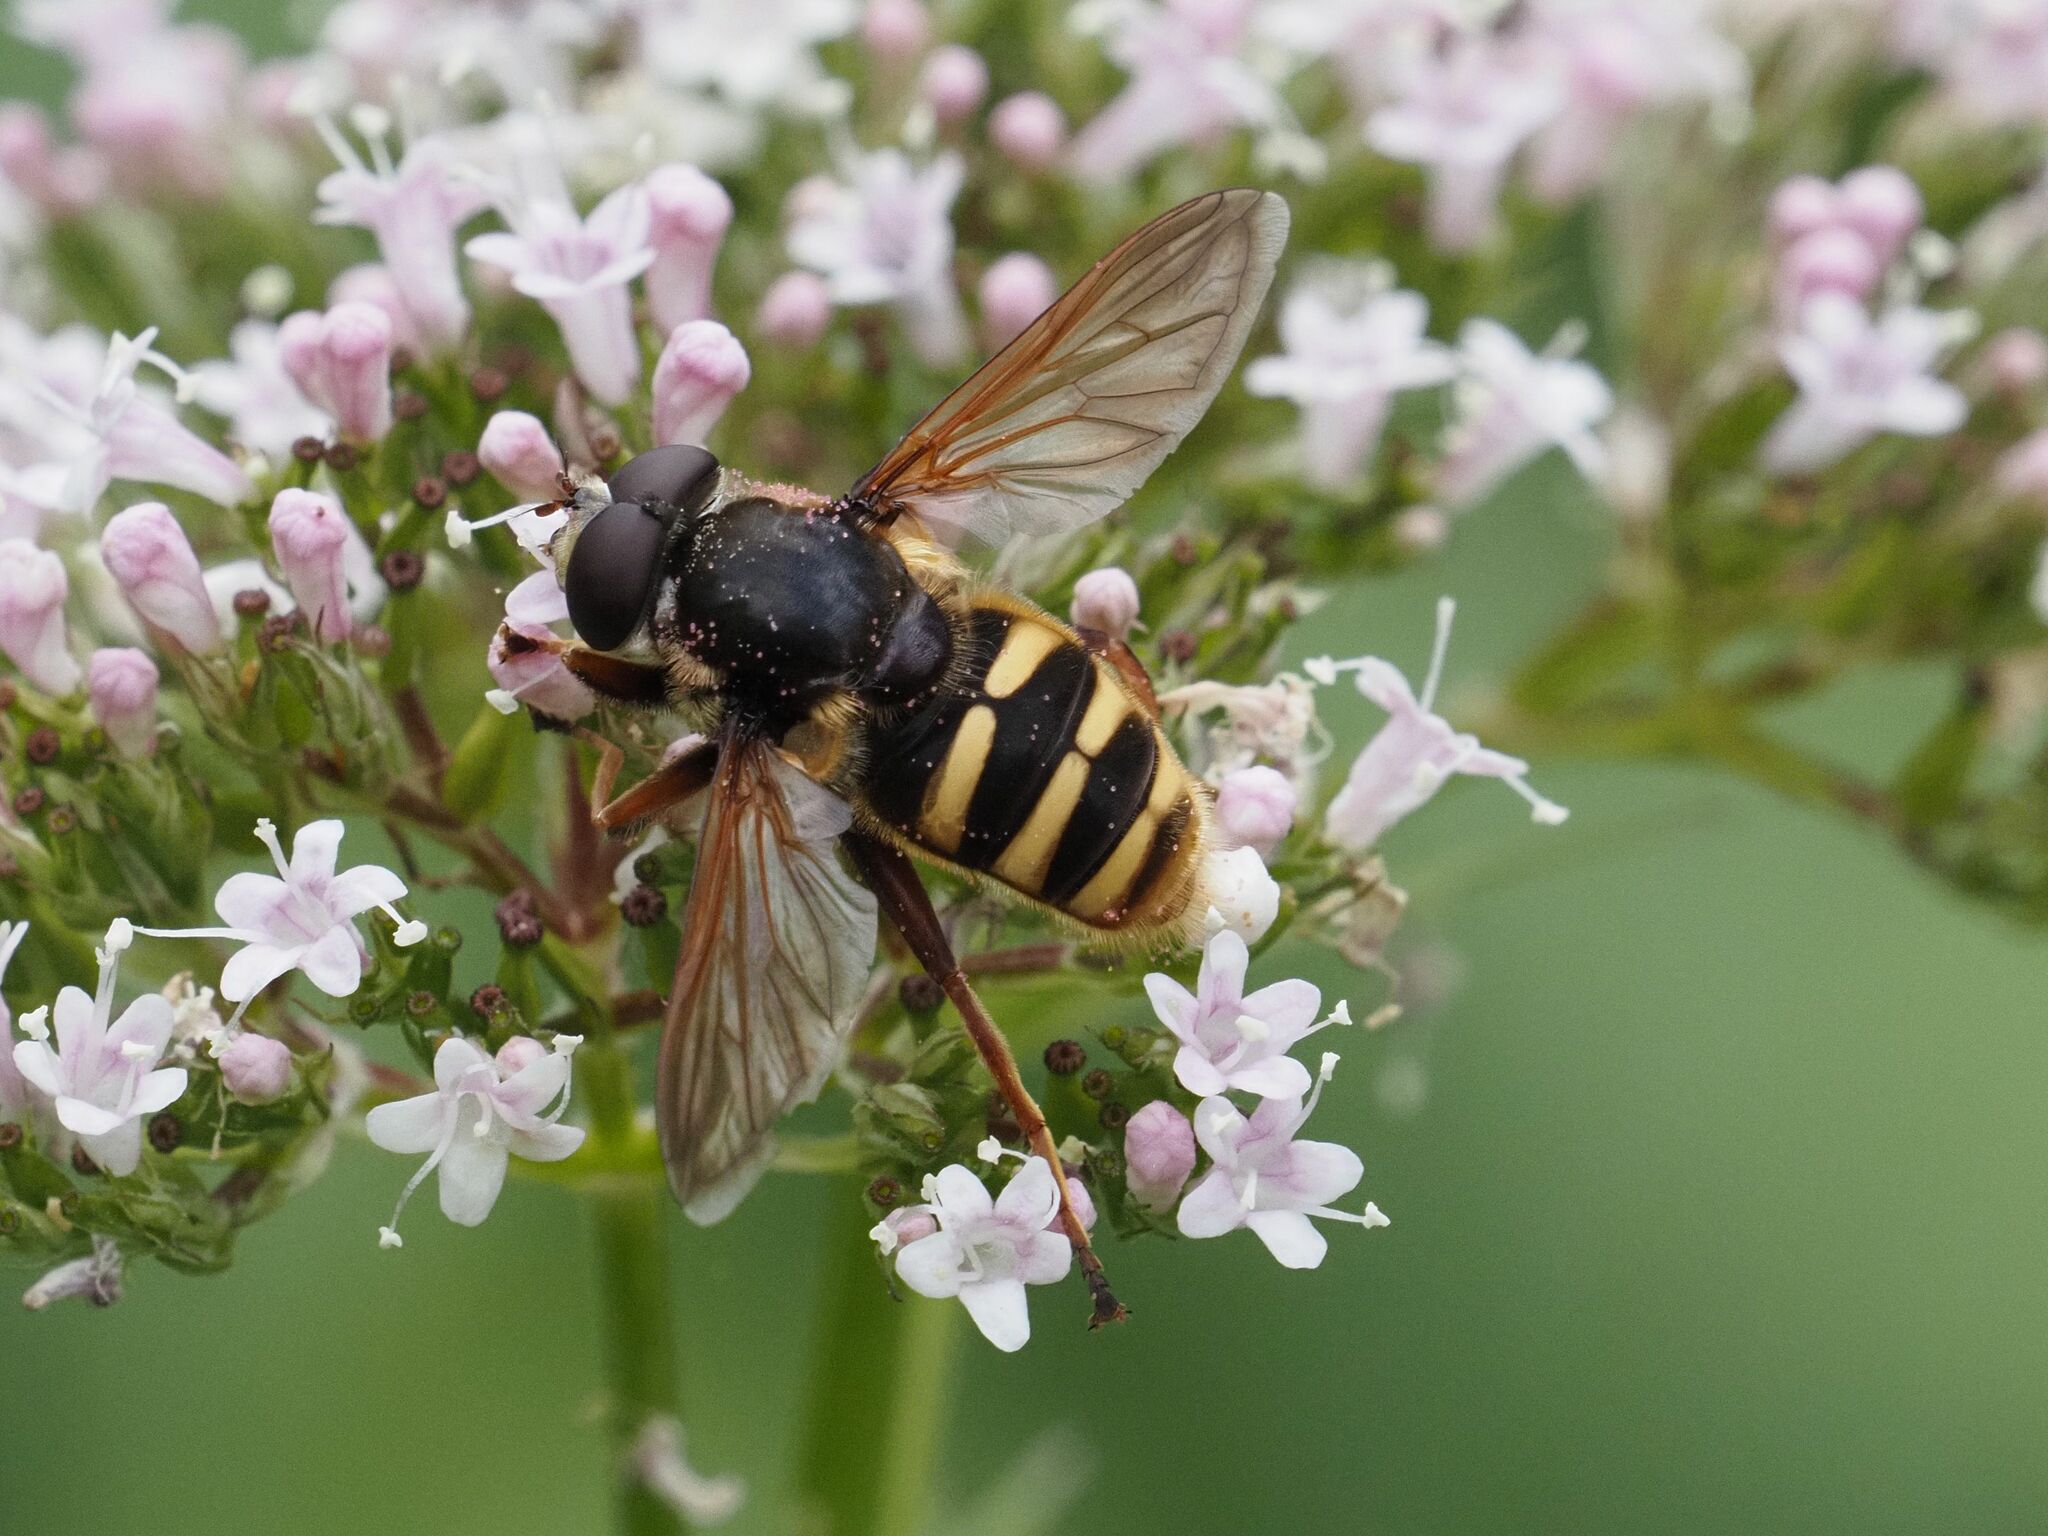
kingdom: Animalia
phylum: Arthropoda
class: Insecta
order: Diptera
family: Syrphidae
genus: Sericomyia
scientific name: Sericomyia silentis
